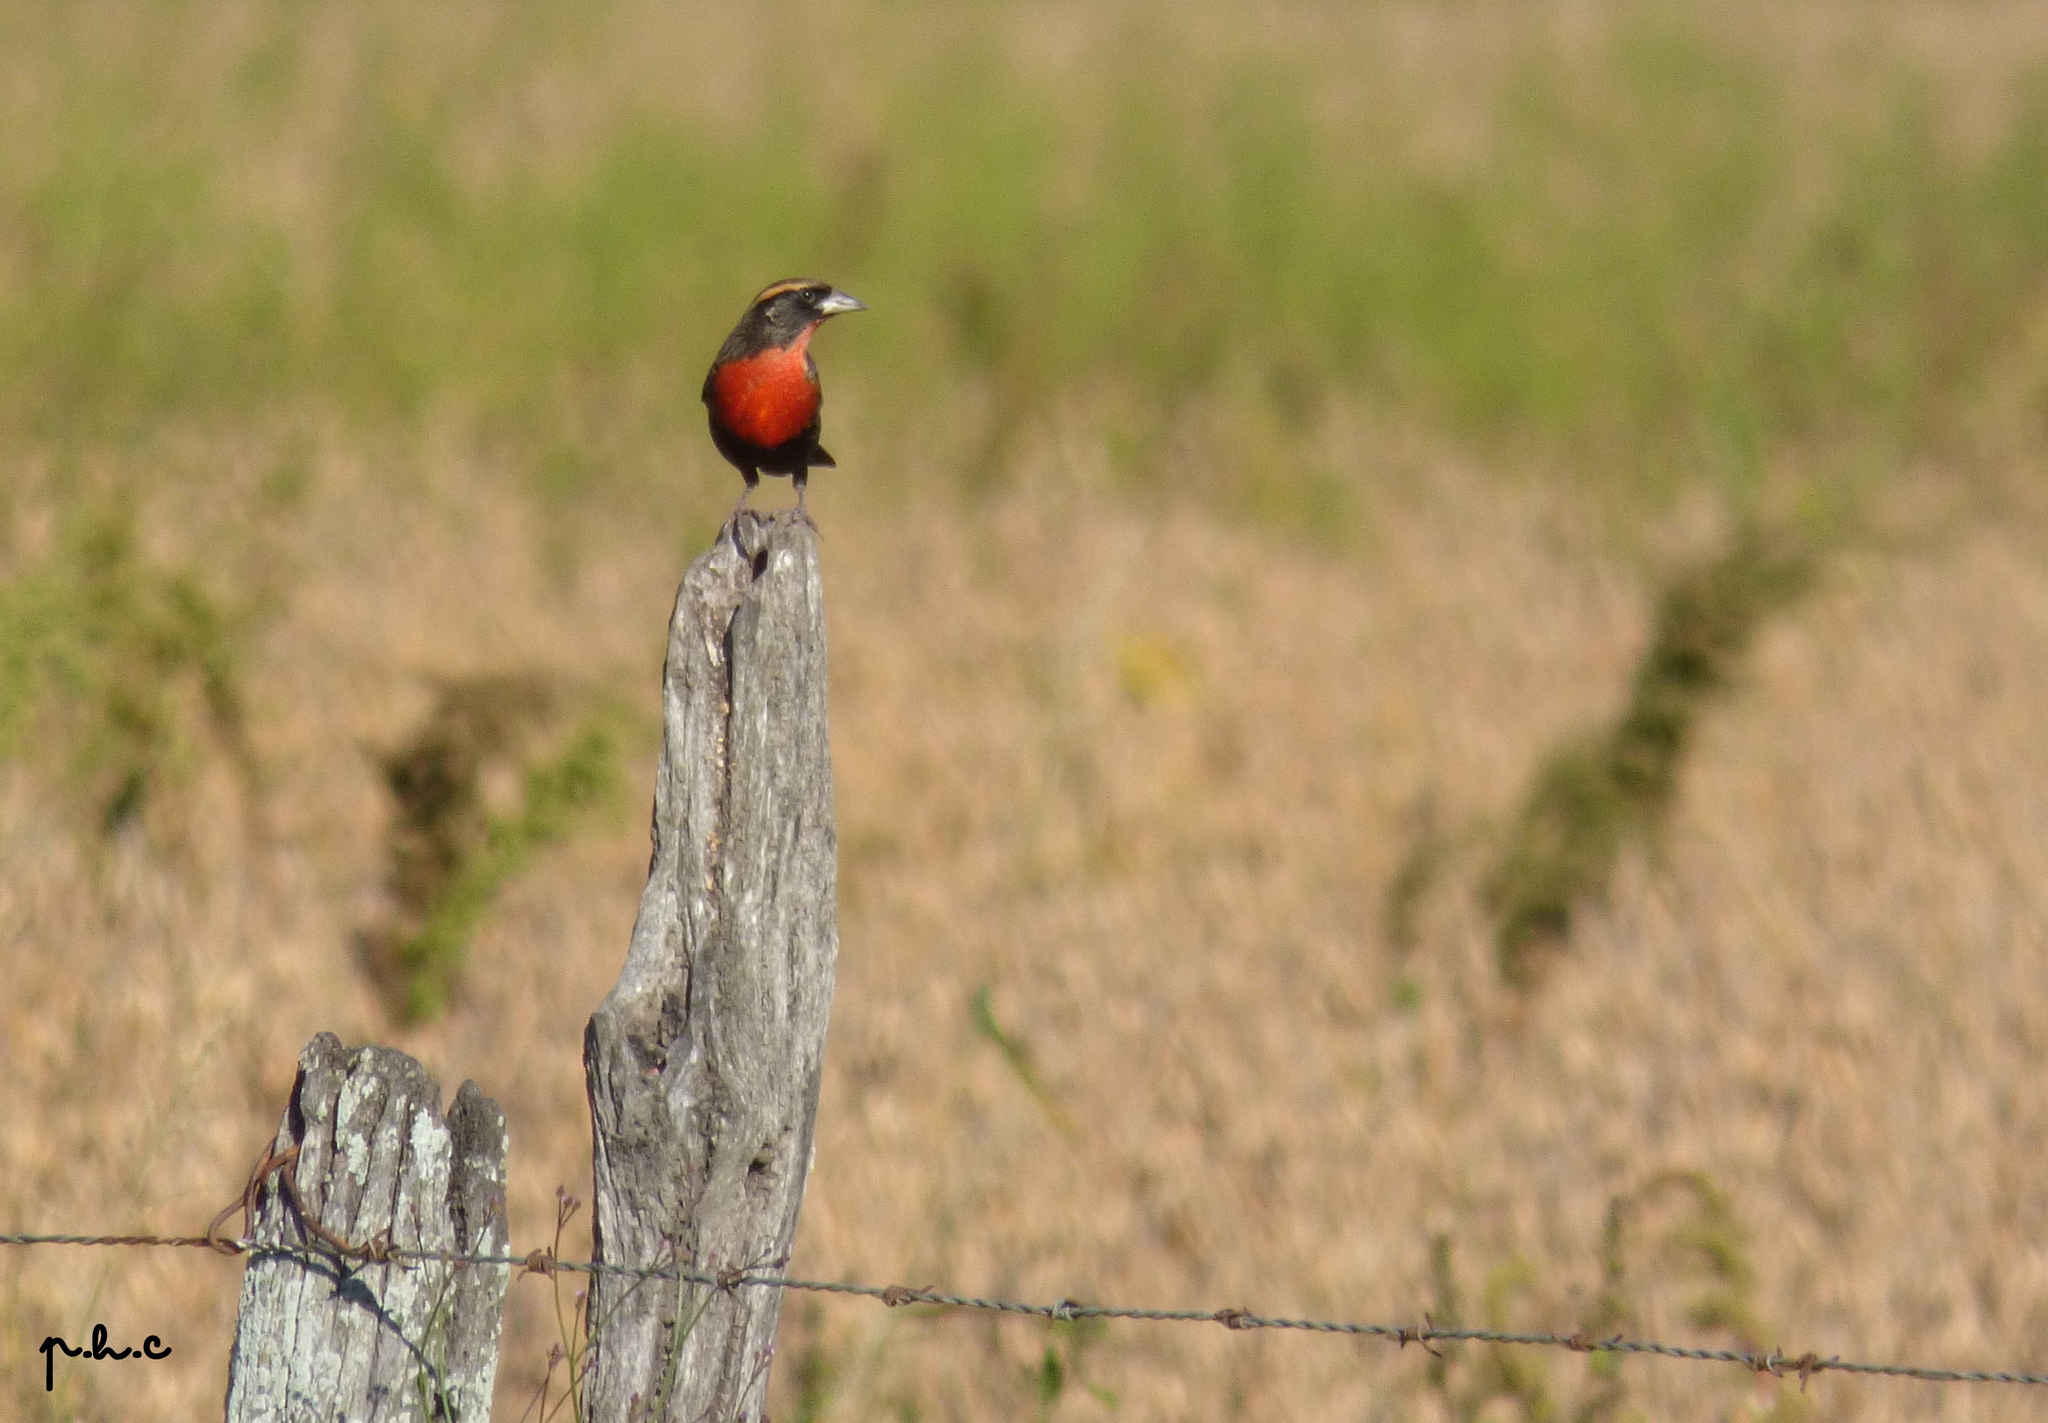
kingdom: Animalia
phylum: Chordata
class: Aves
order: Passeriformes
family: Icteridae
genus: Sturnella
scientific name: Sturnella superciliaris
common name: White-browed blackbird
